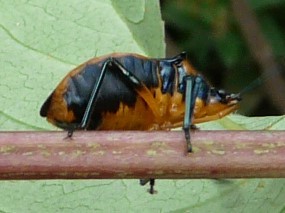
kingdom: Animalia
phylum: Arthropoda
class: Insecta
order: Hemiptera
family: Pentatomidae
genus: Euthyrhynchus
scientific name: Euthyrhynchus floridanus
